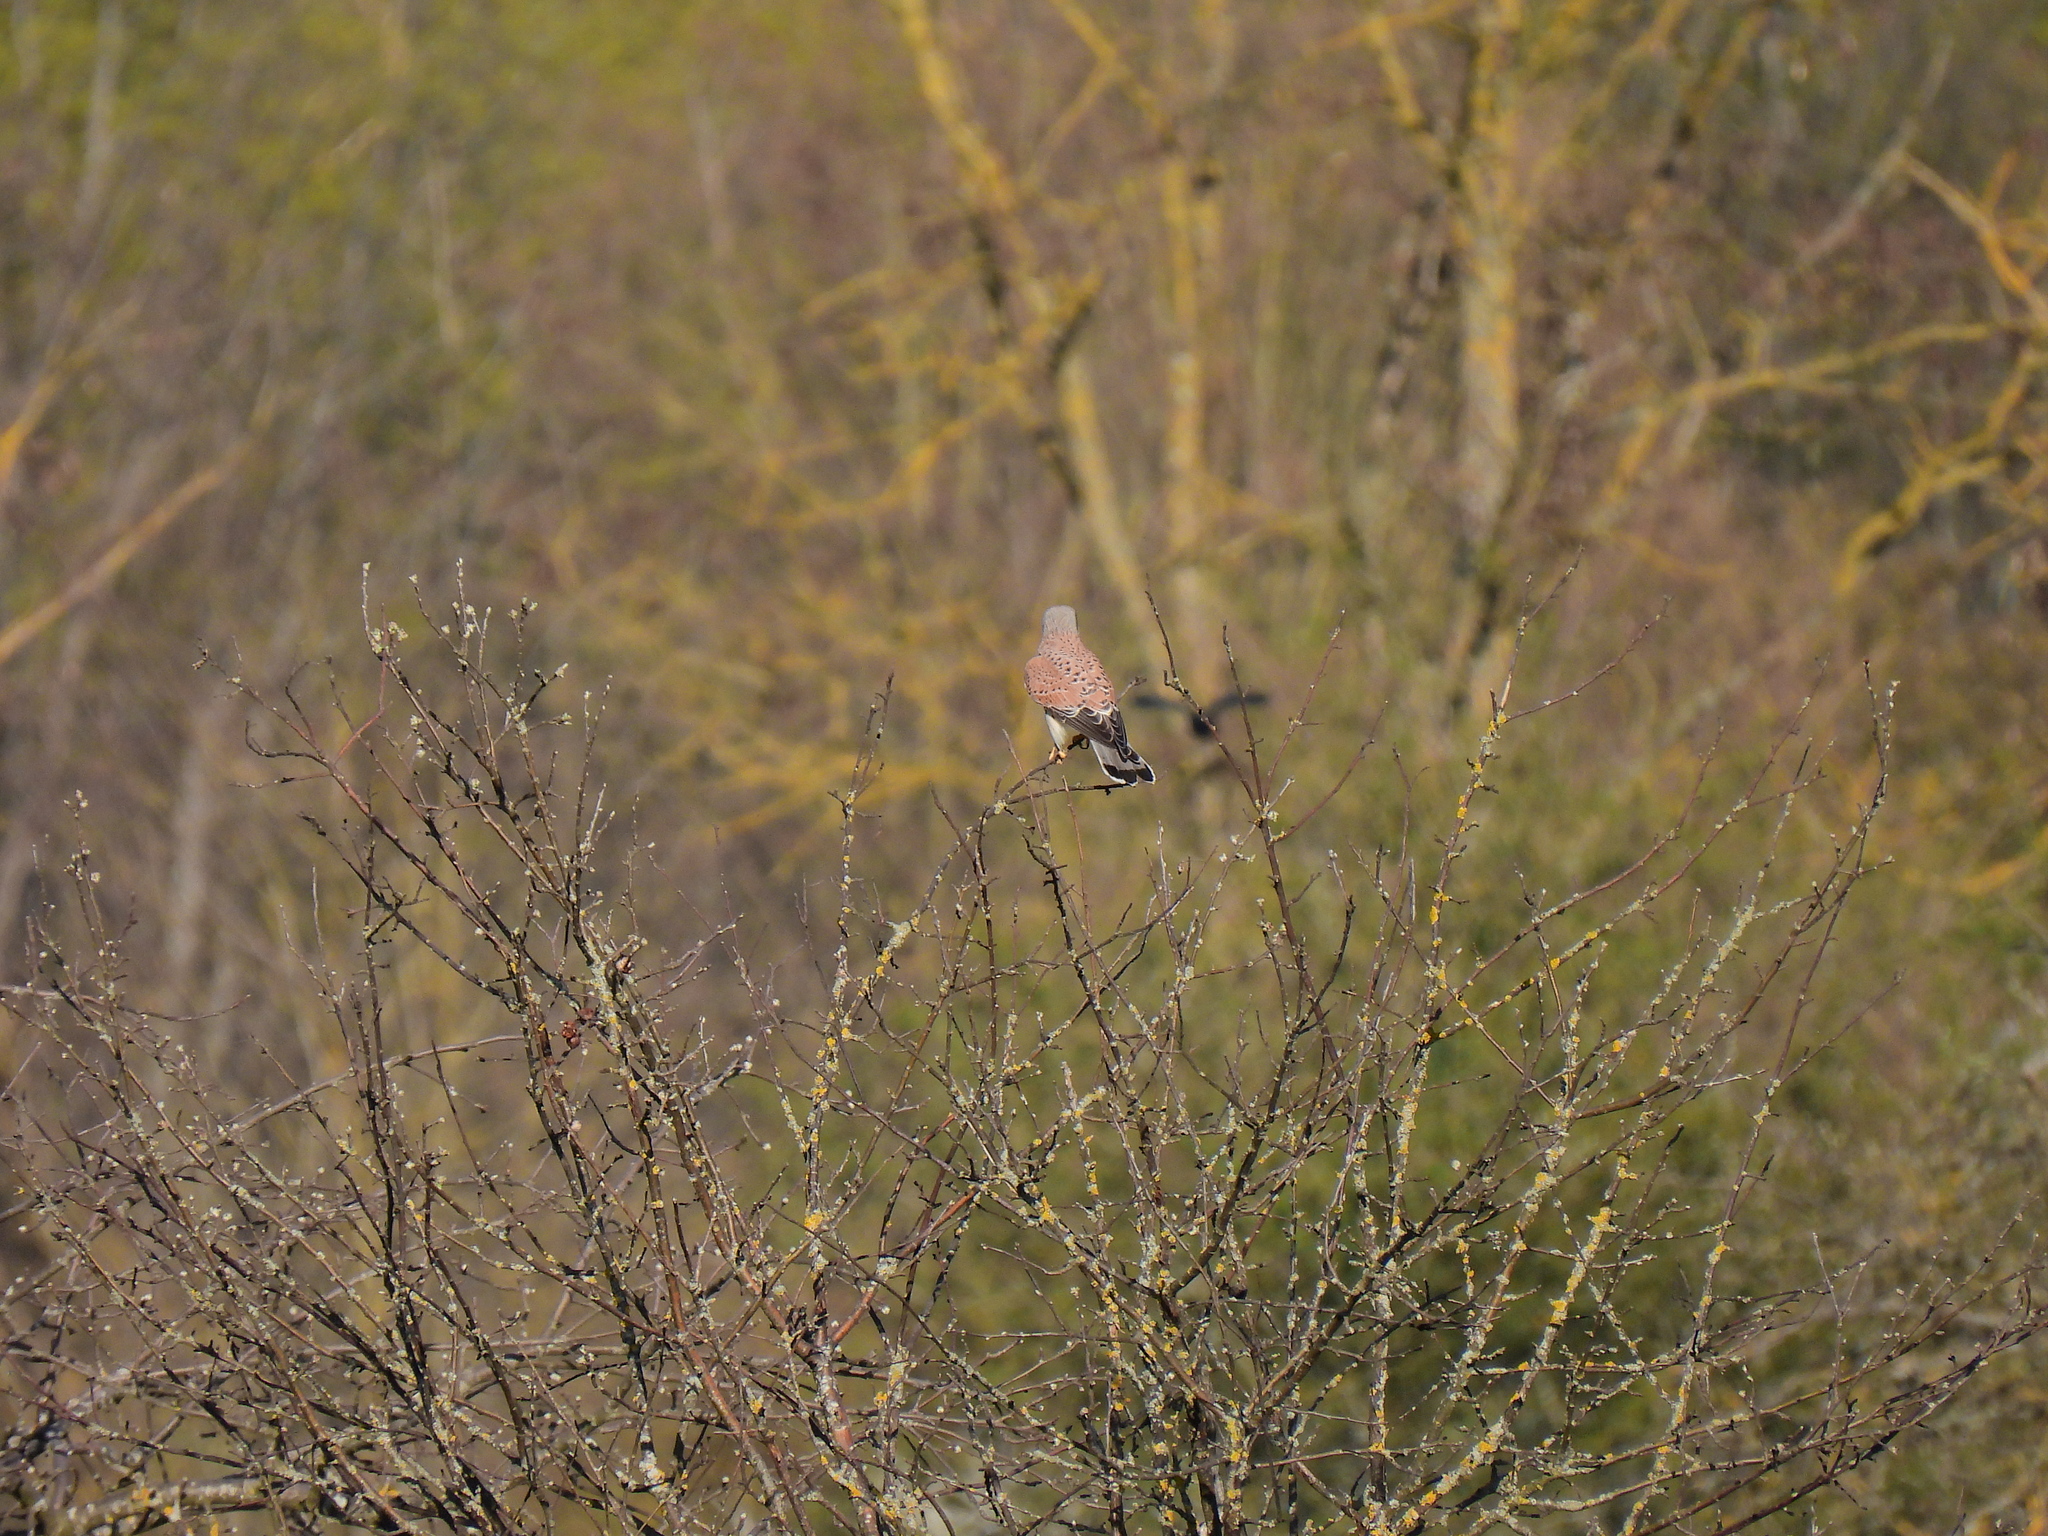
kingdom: Animalia
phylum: Chordata
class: Aves
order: Falconiformes
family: Falconidae
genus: Falco
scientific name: Falco tinnunculus
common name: Common kestrel
